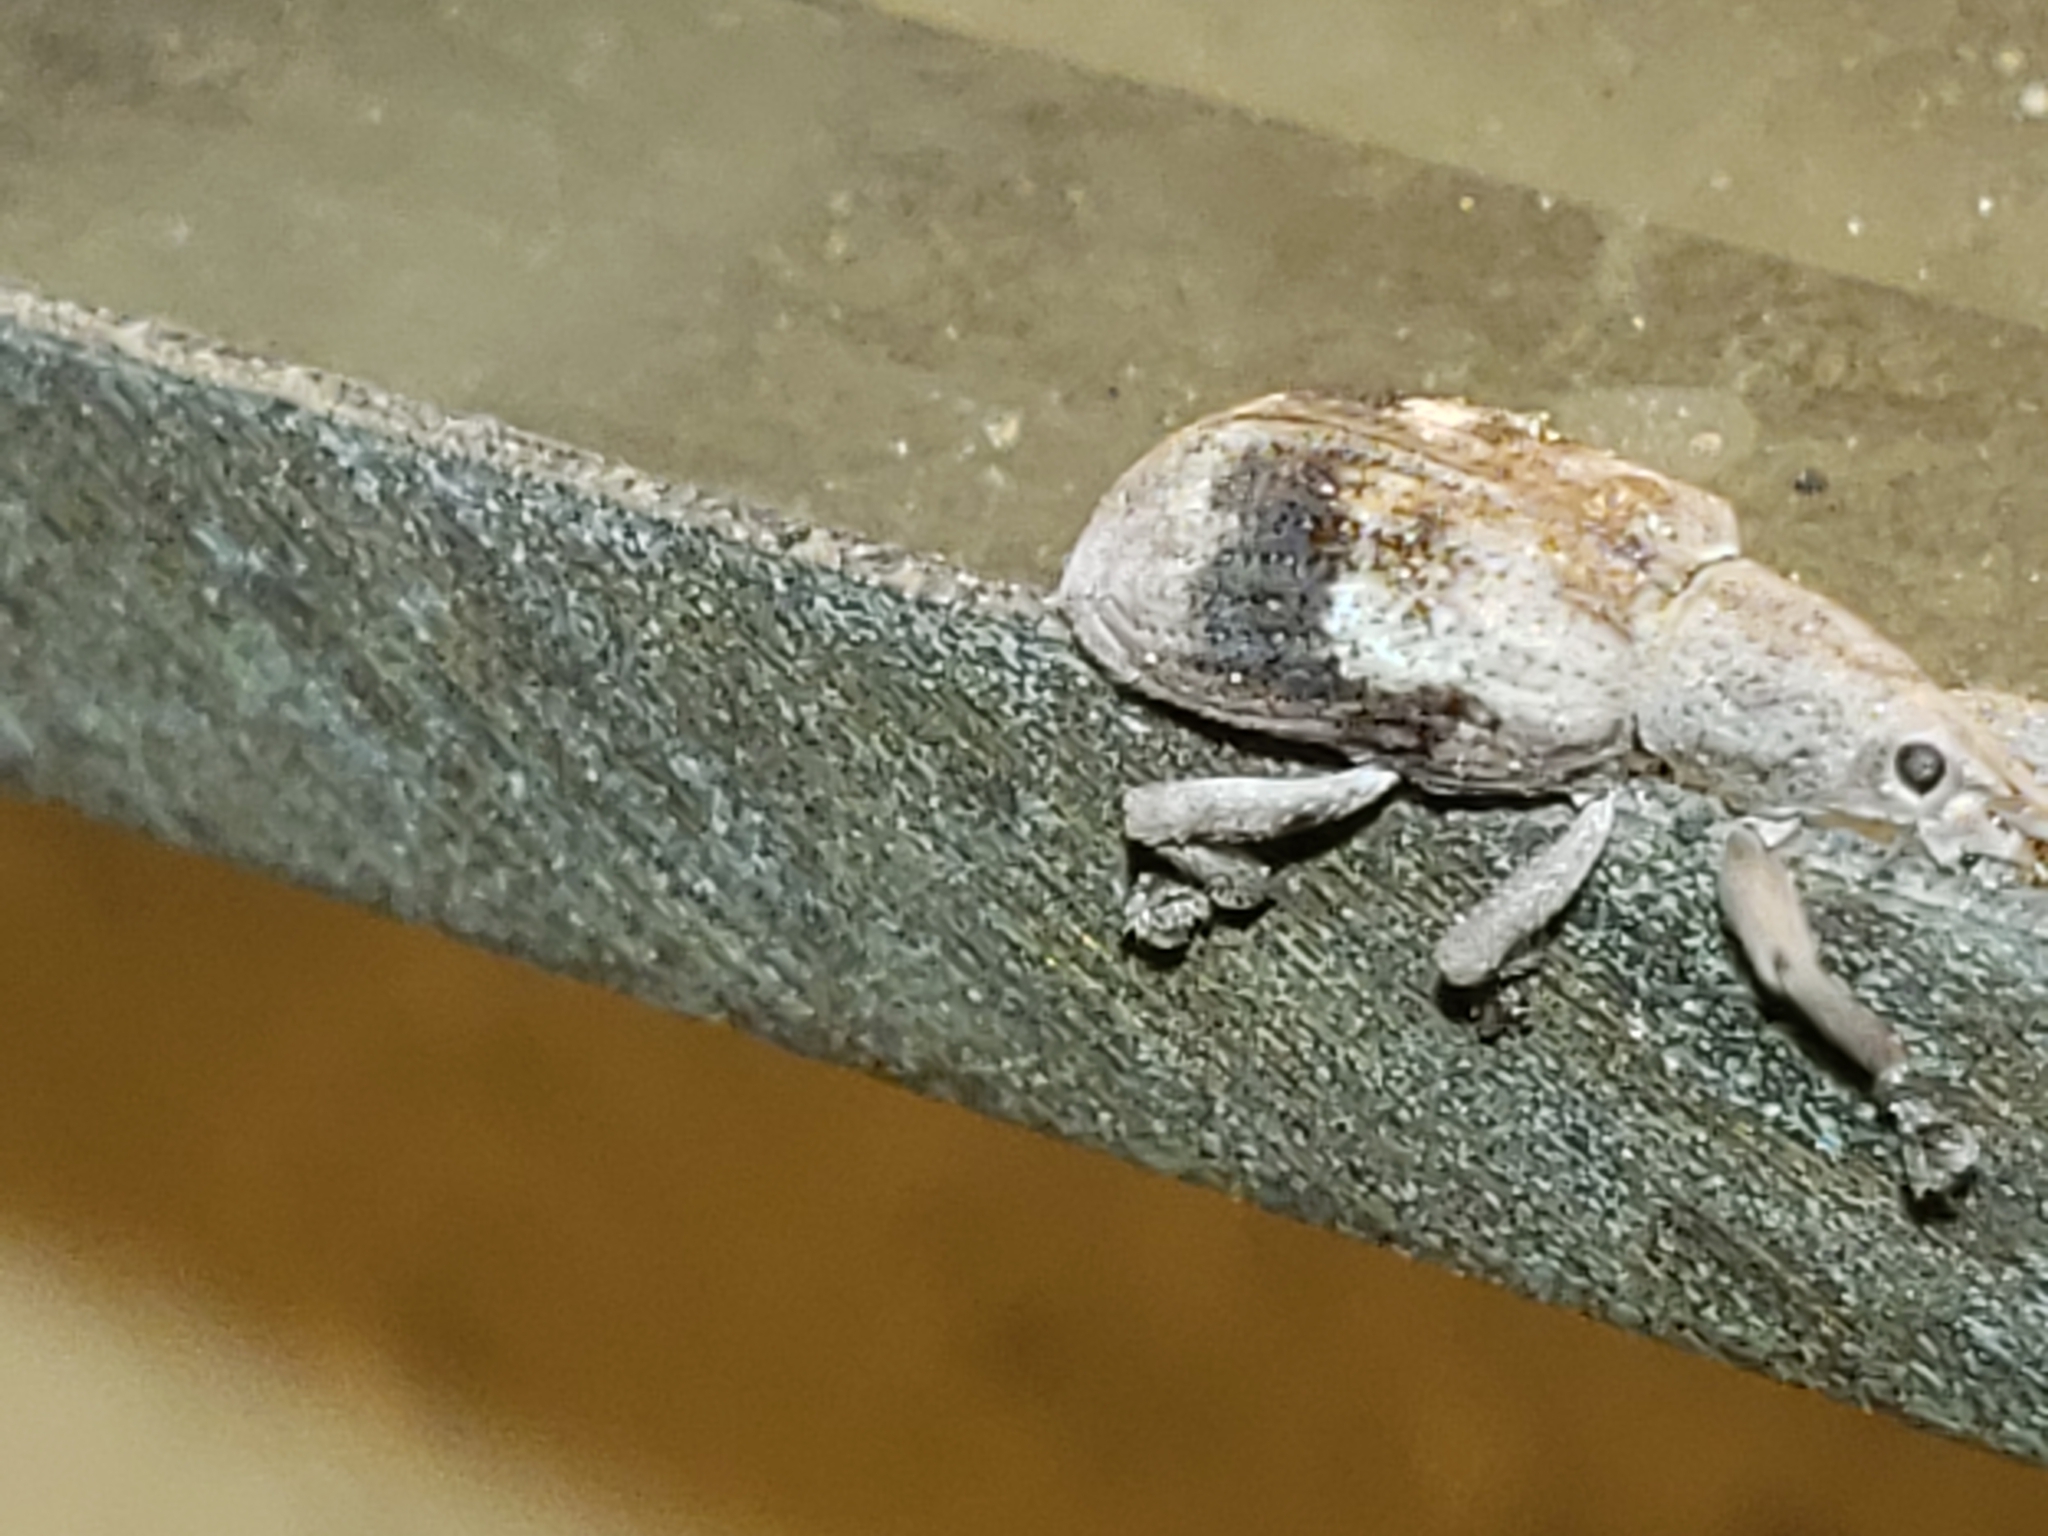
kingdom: Animalia
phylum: Arthropoda
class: Insecta
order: Coleoptera
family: Curculionidae
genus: Brachystylus
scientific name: Brachystylus
